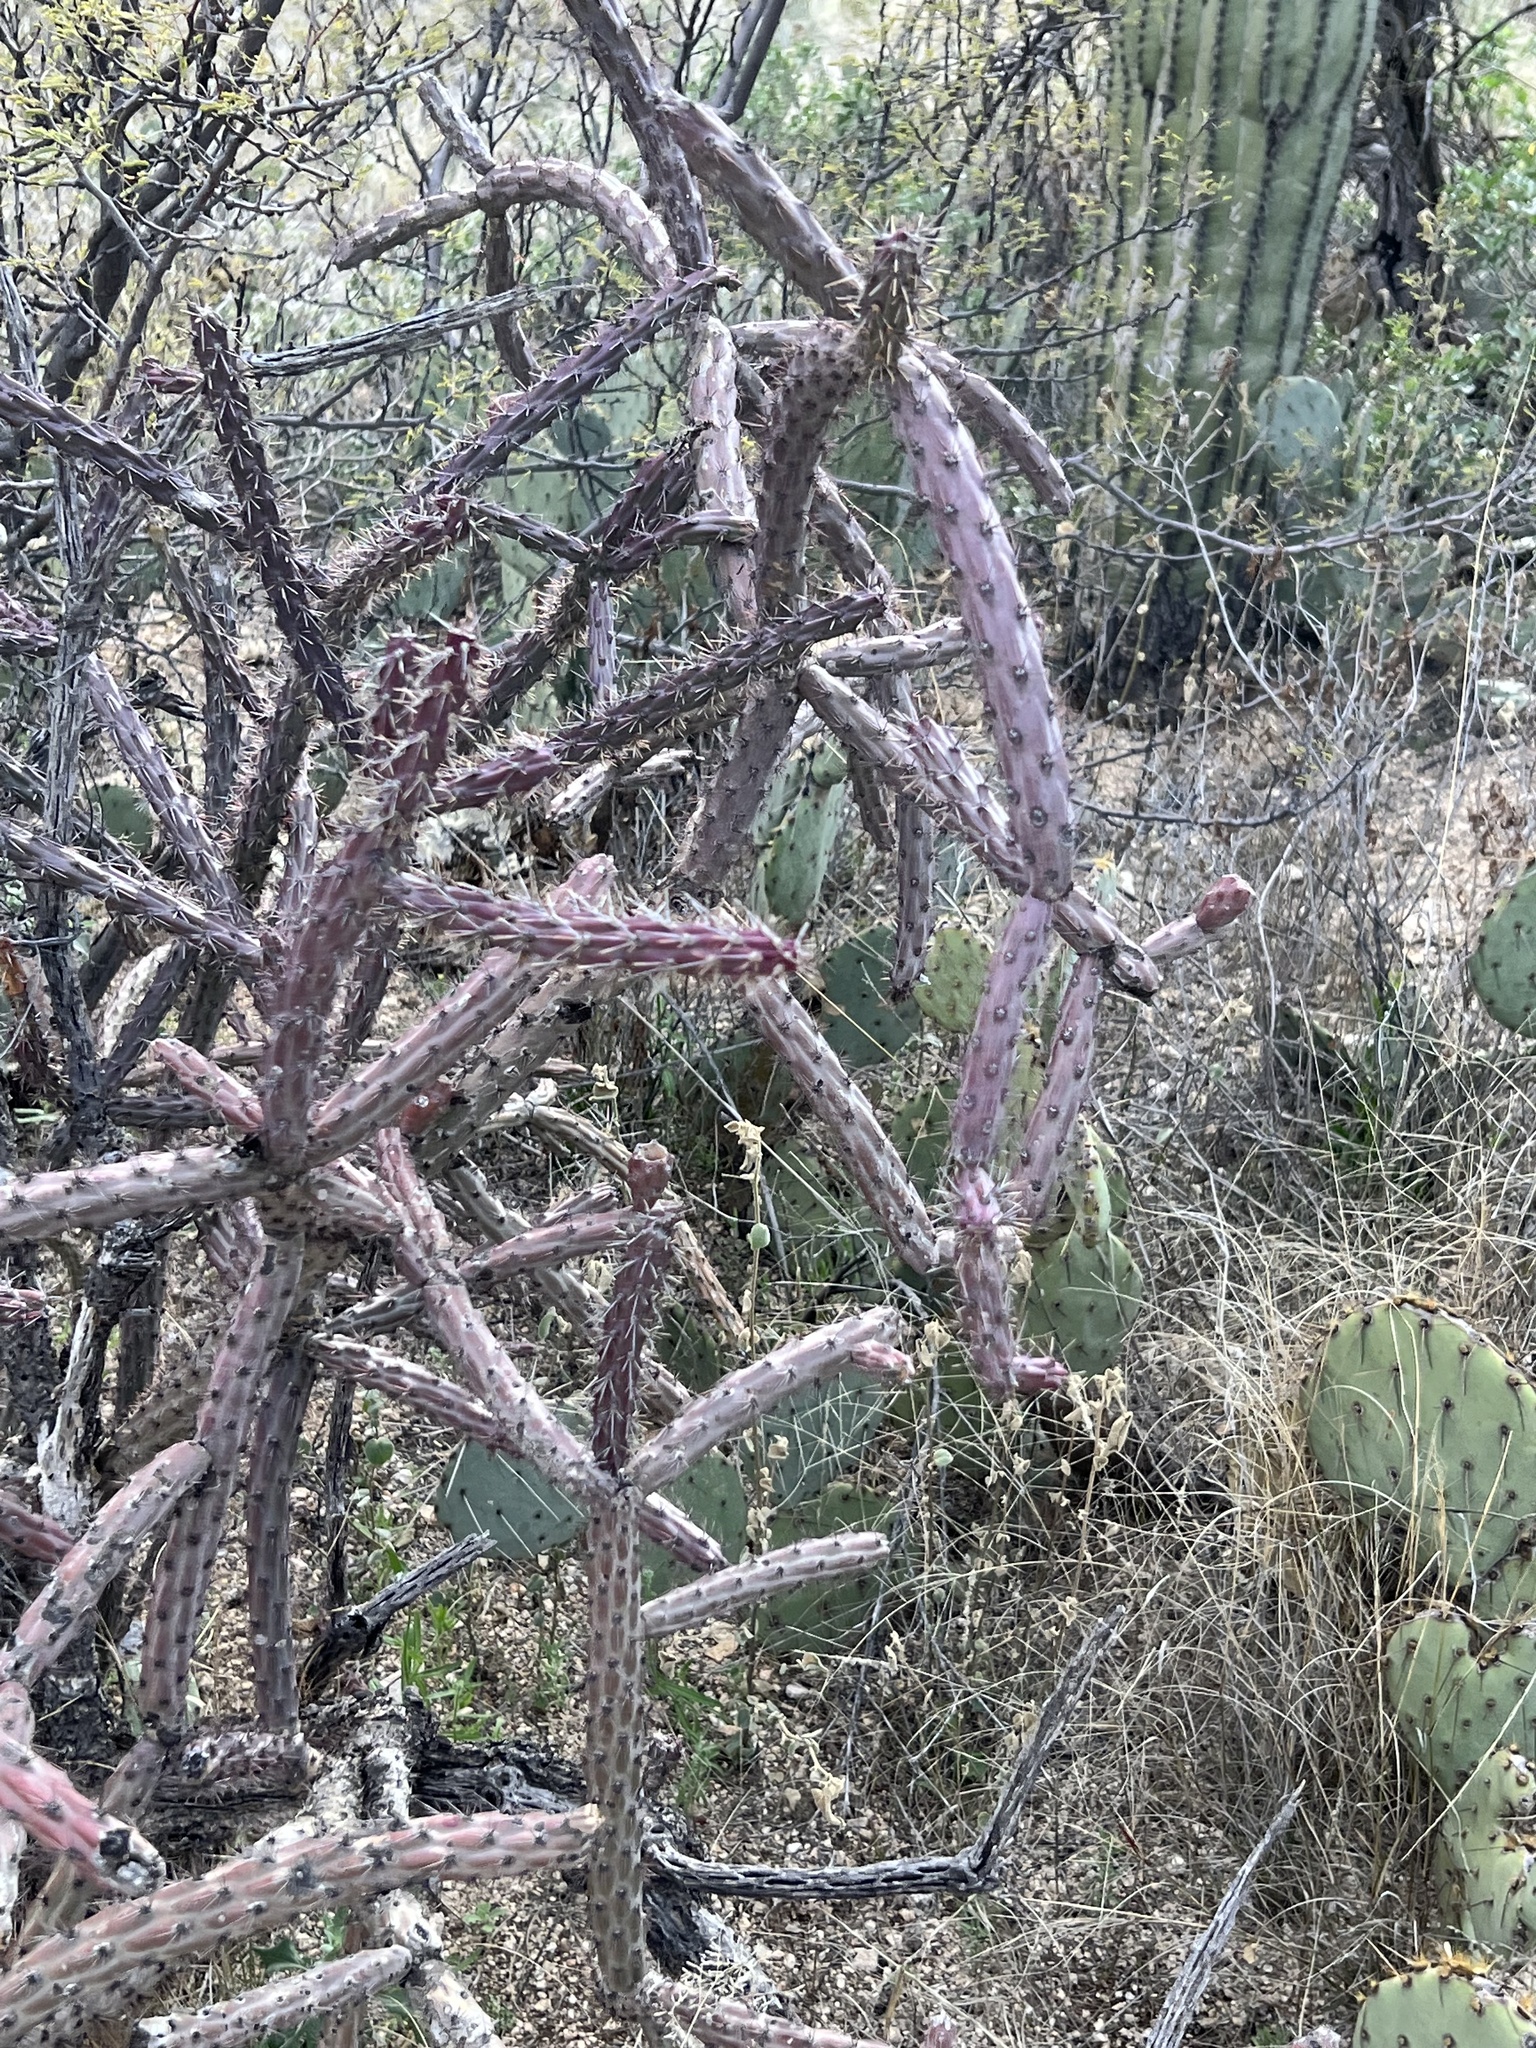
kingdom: Plantae
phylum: Tracheophyta
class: Magnoliopsida
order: Caryophyllales
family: Cactaceae
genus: Cylindropuntia
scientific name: Cylindropuntia thurberi
